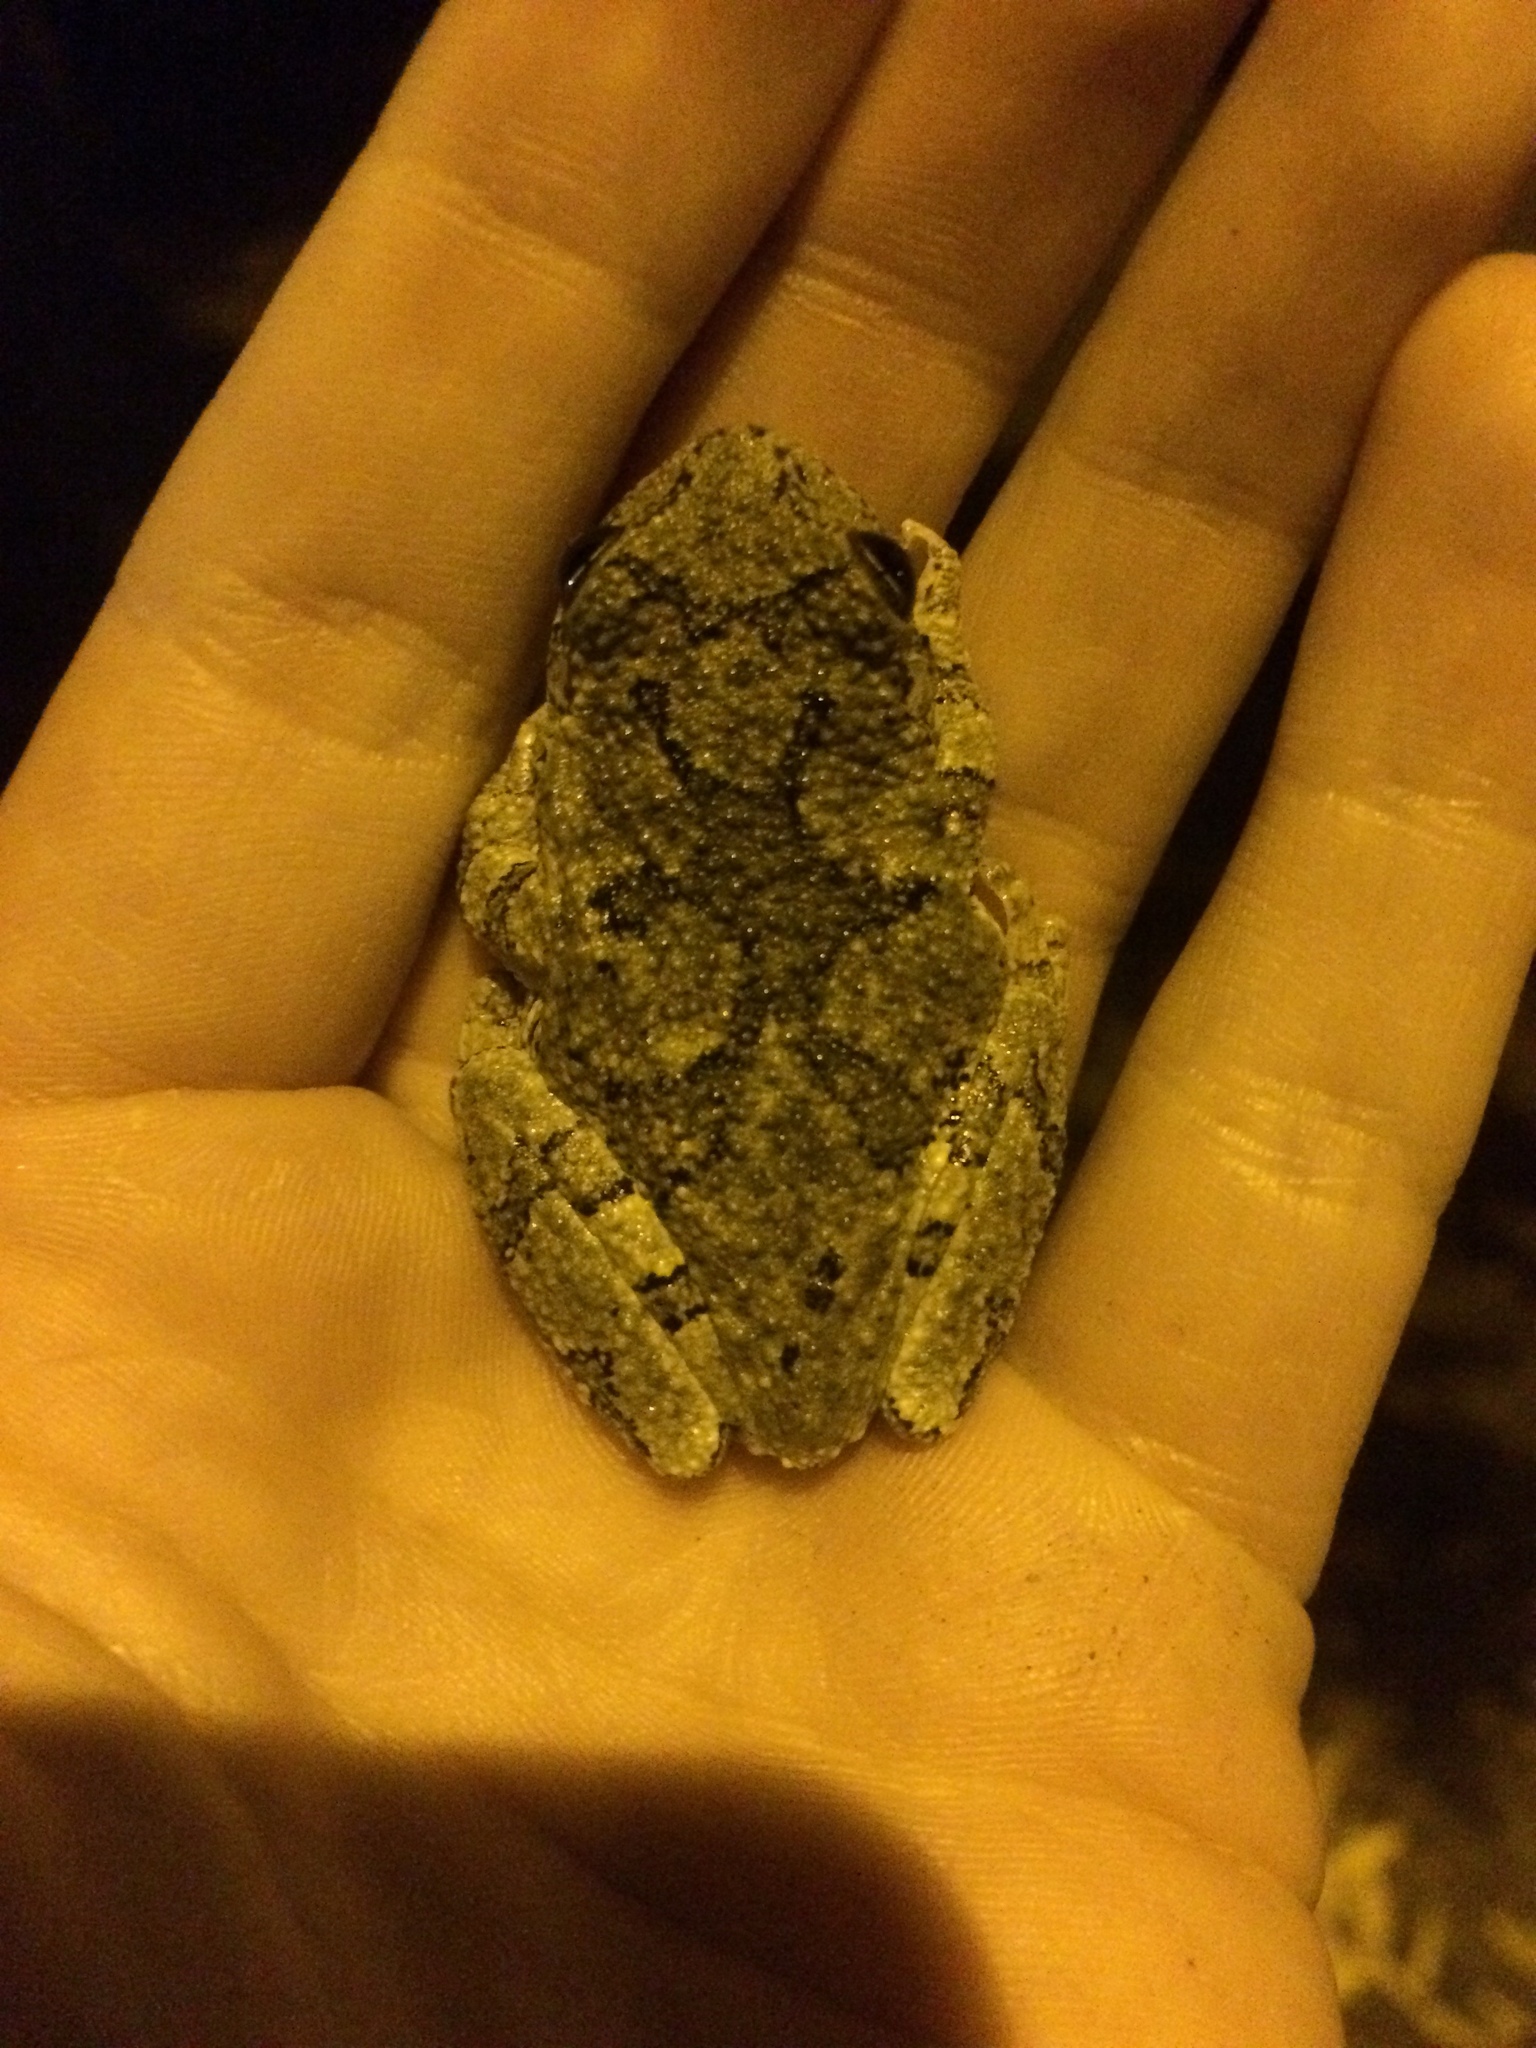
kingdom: Animalia
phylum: Chordata
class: Amphibia
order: Anura
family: Hylidae
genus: Dryophytes
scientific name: Dryophytes chrysoscelis
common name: Cope's gray treefrog
